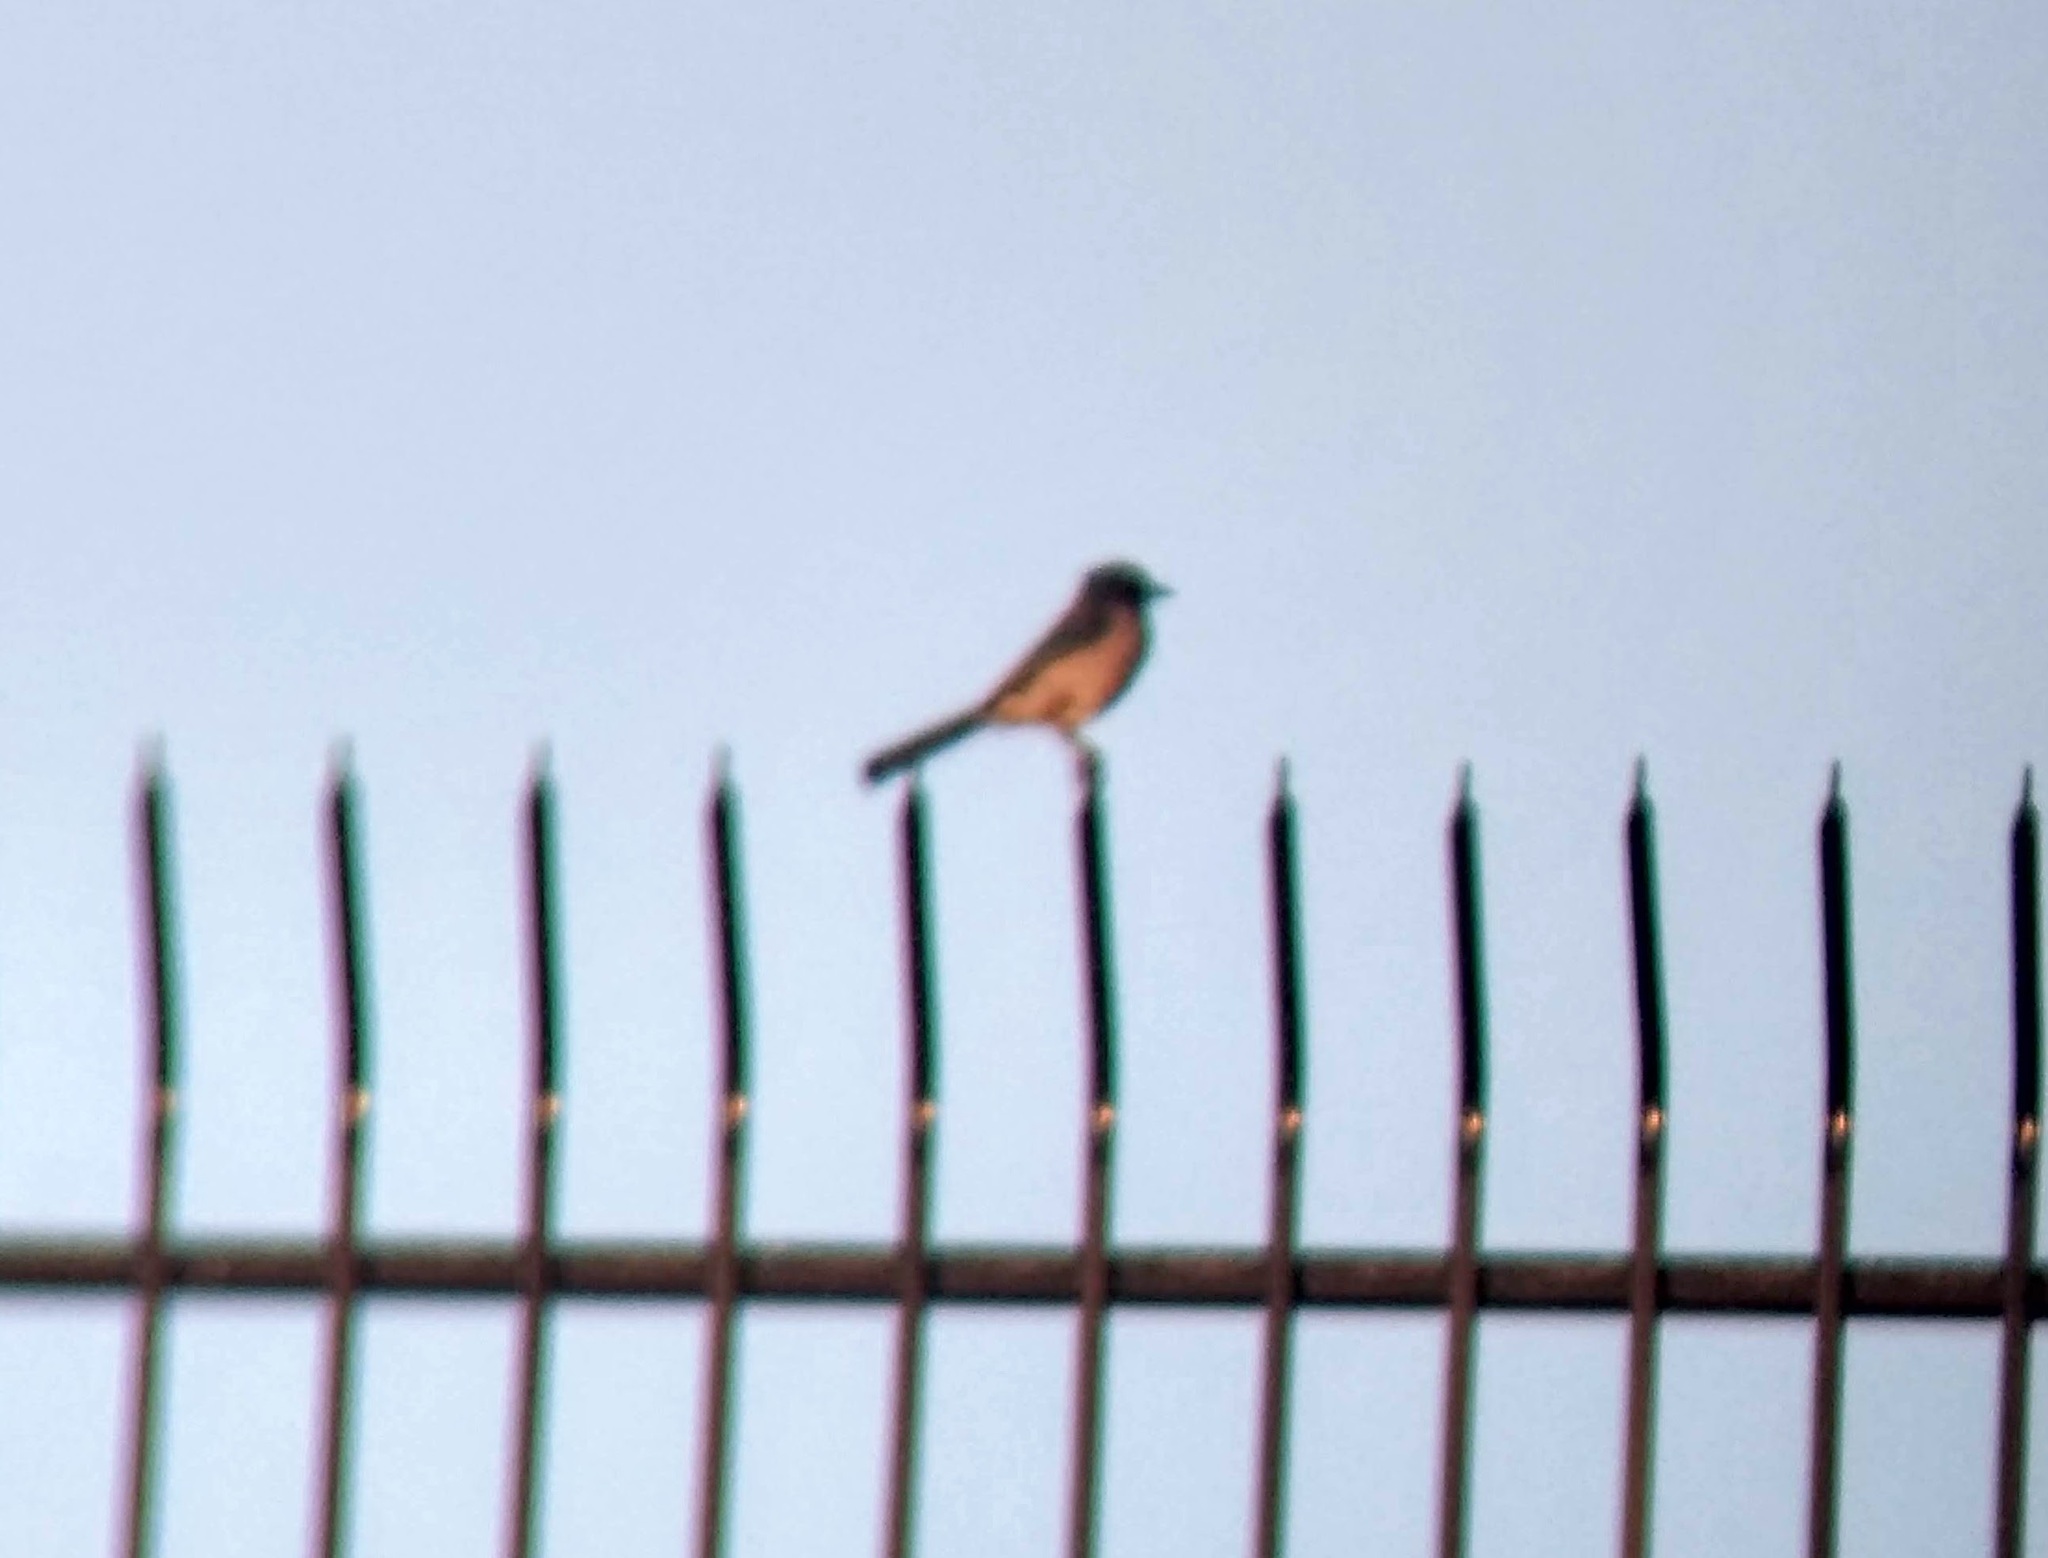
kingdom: Animalia
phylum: Chordata
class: Aves
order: Passeriformes
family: Corvidae
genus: Aphelocoma
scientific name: Aphelocoma californica
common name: California scrub-jay
